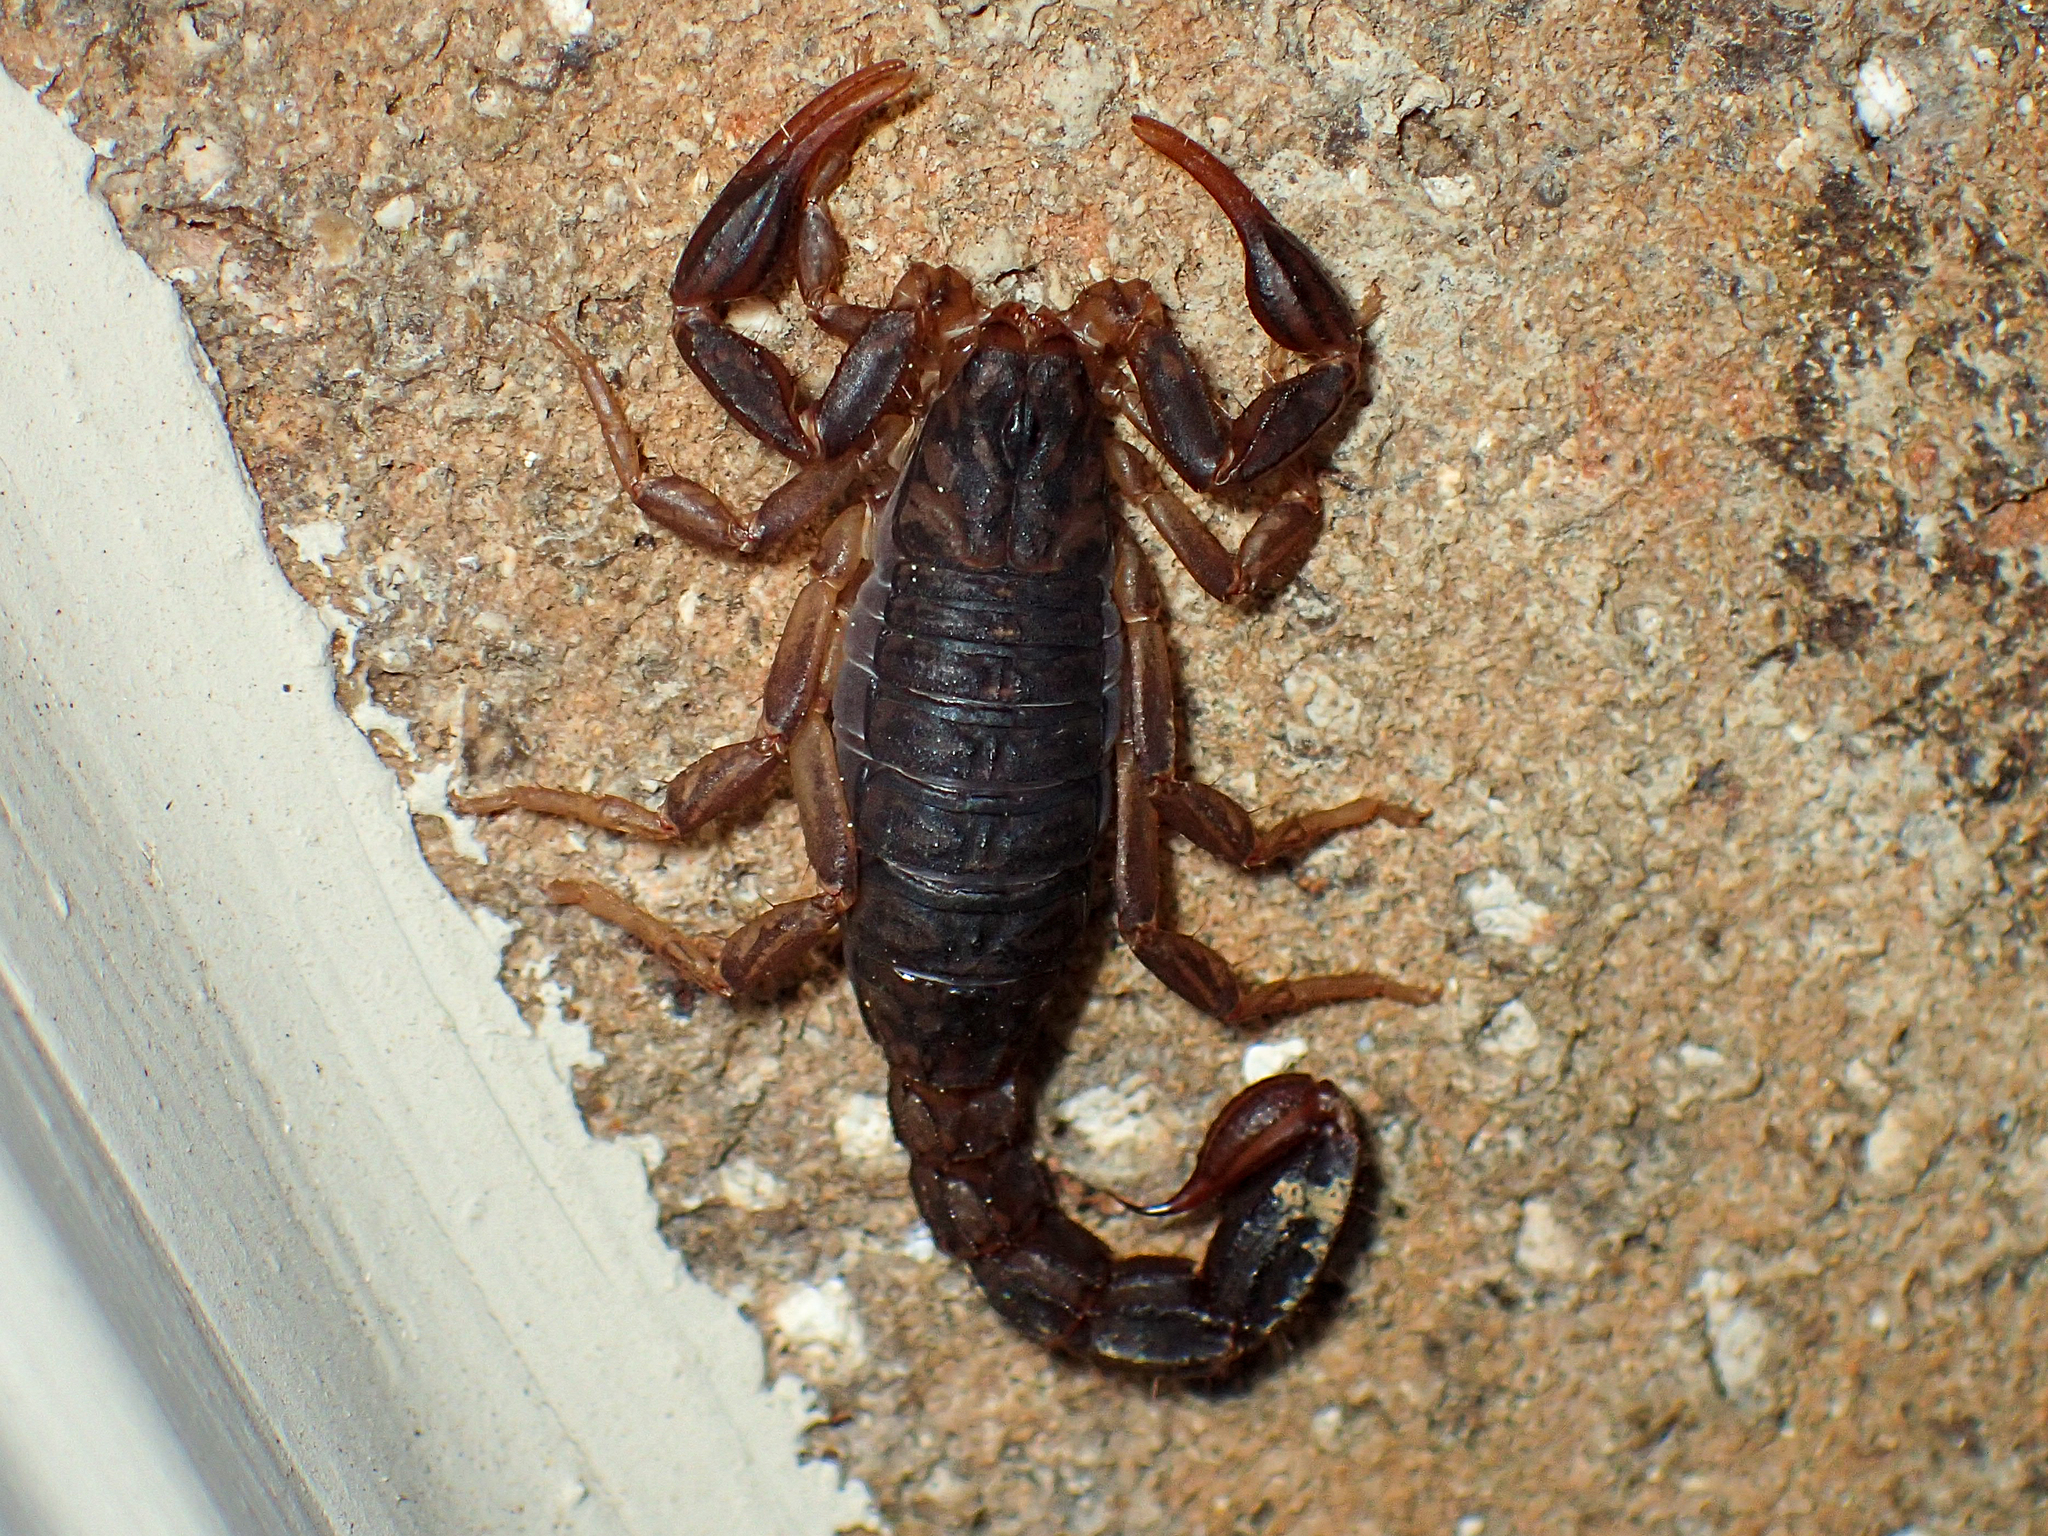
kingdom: Animalia
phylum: Arthropoda
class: Arachnida
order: Scorpiones
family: Vaejovidae
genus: Vaejovis
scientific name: Vaejovis carolinianus
